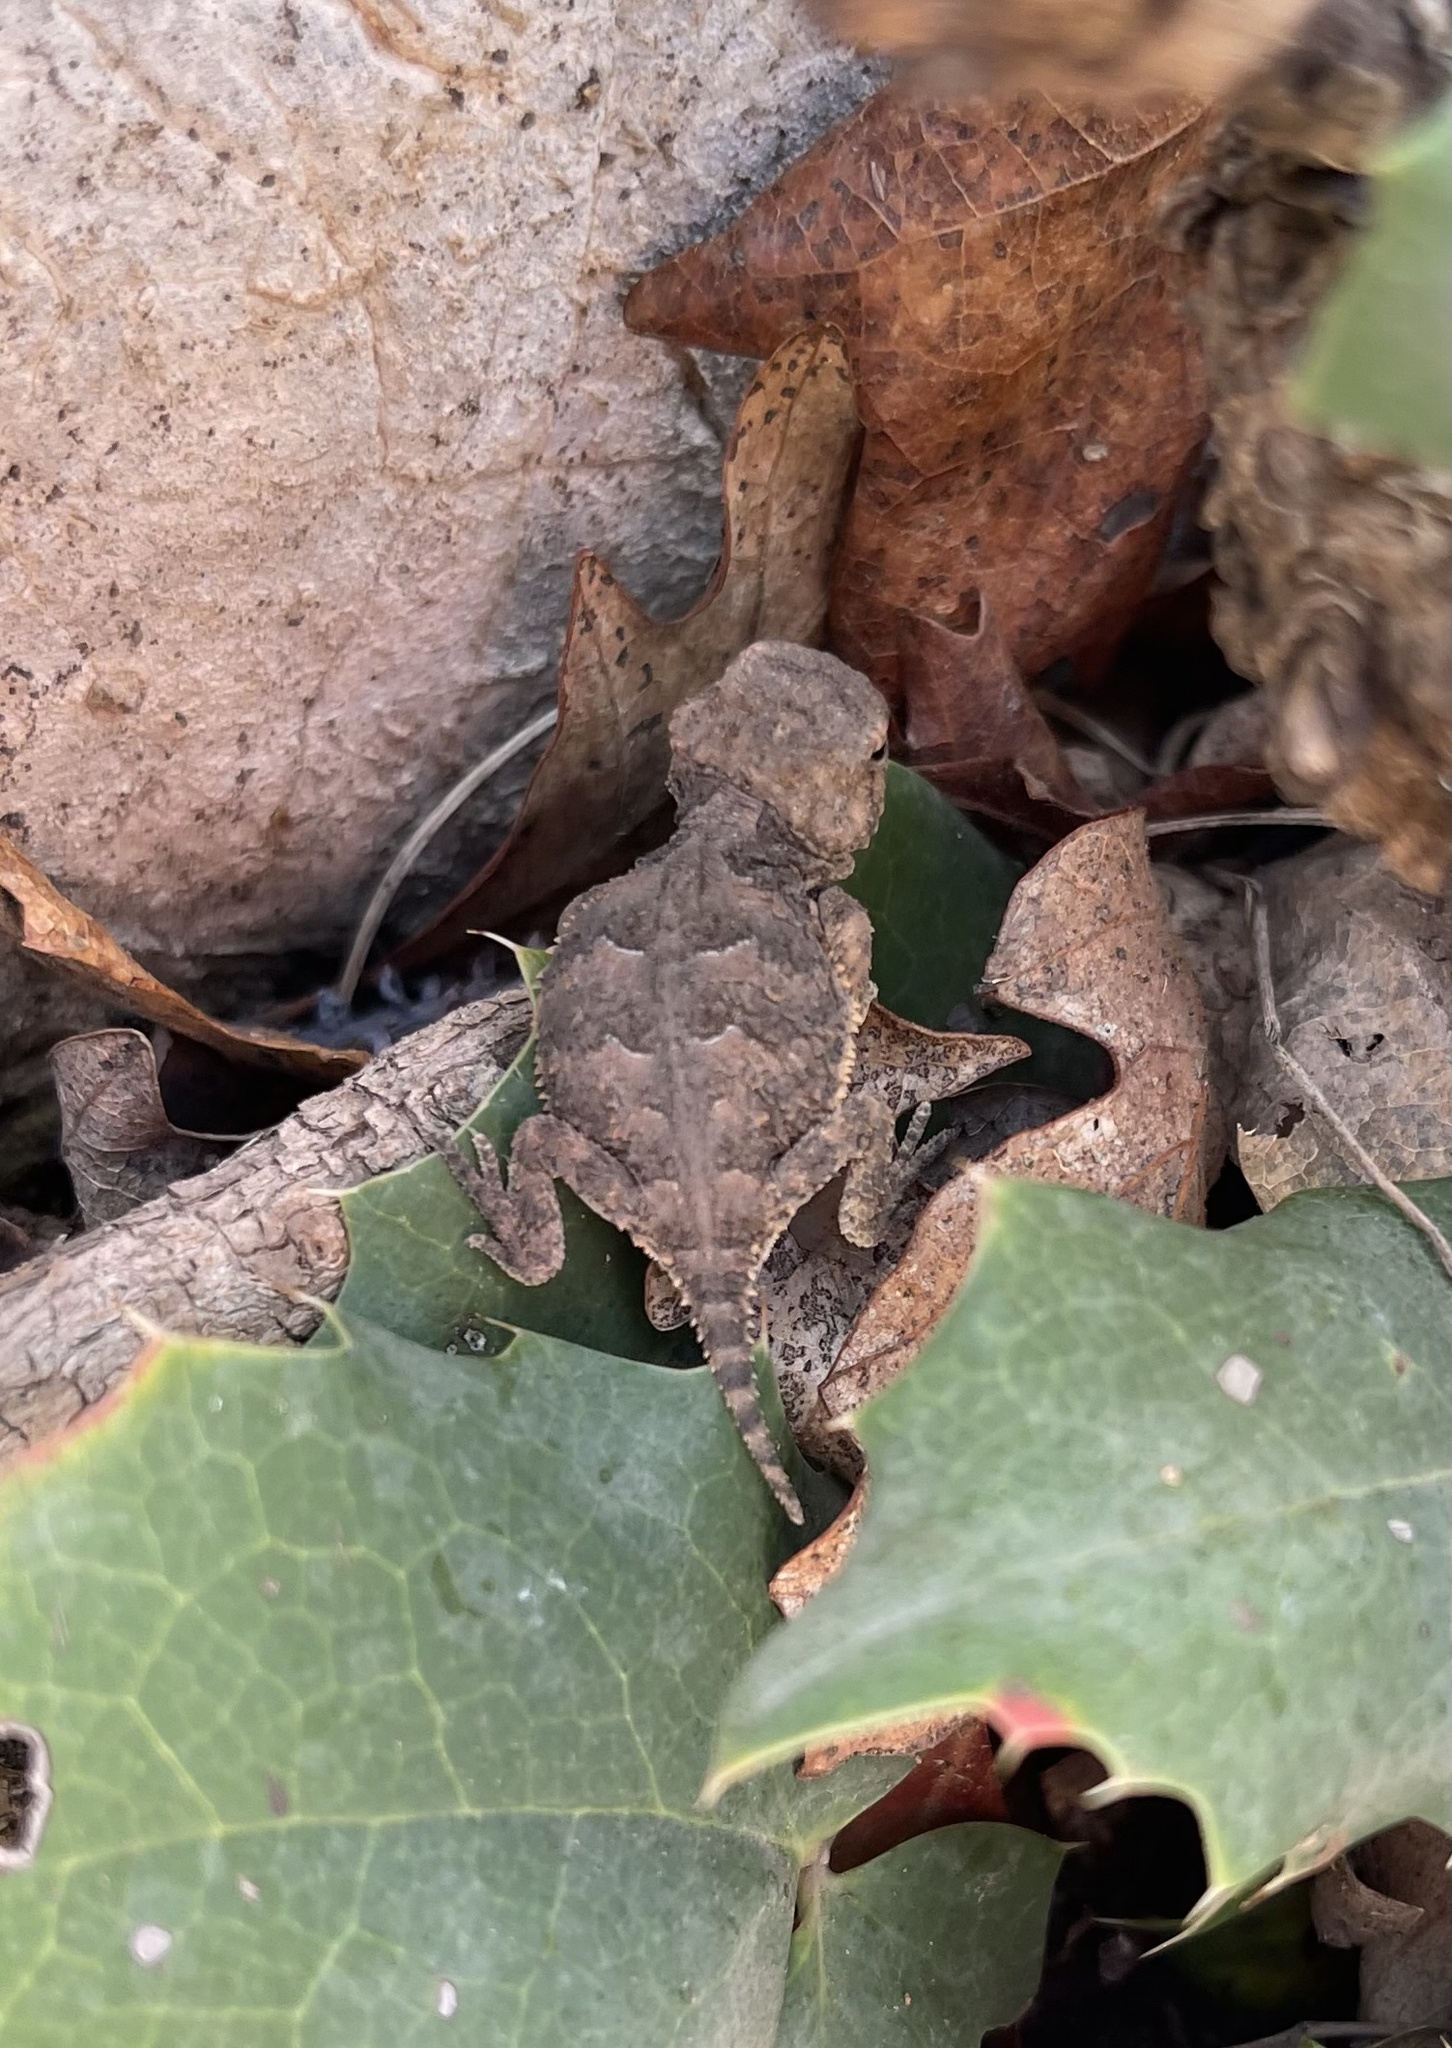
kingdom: Animalia
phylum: Chordata
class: Squamata
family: Phrynosomatidae
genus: Phrynosoma
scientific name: Phrynosoma hernandesi
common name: Greater short-horned lizard
